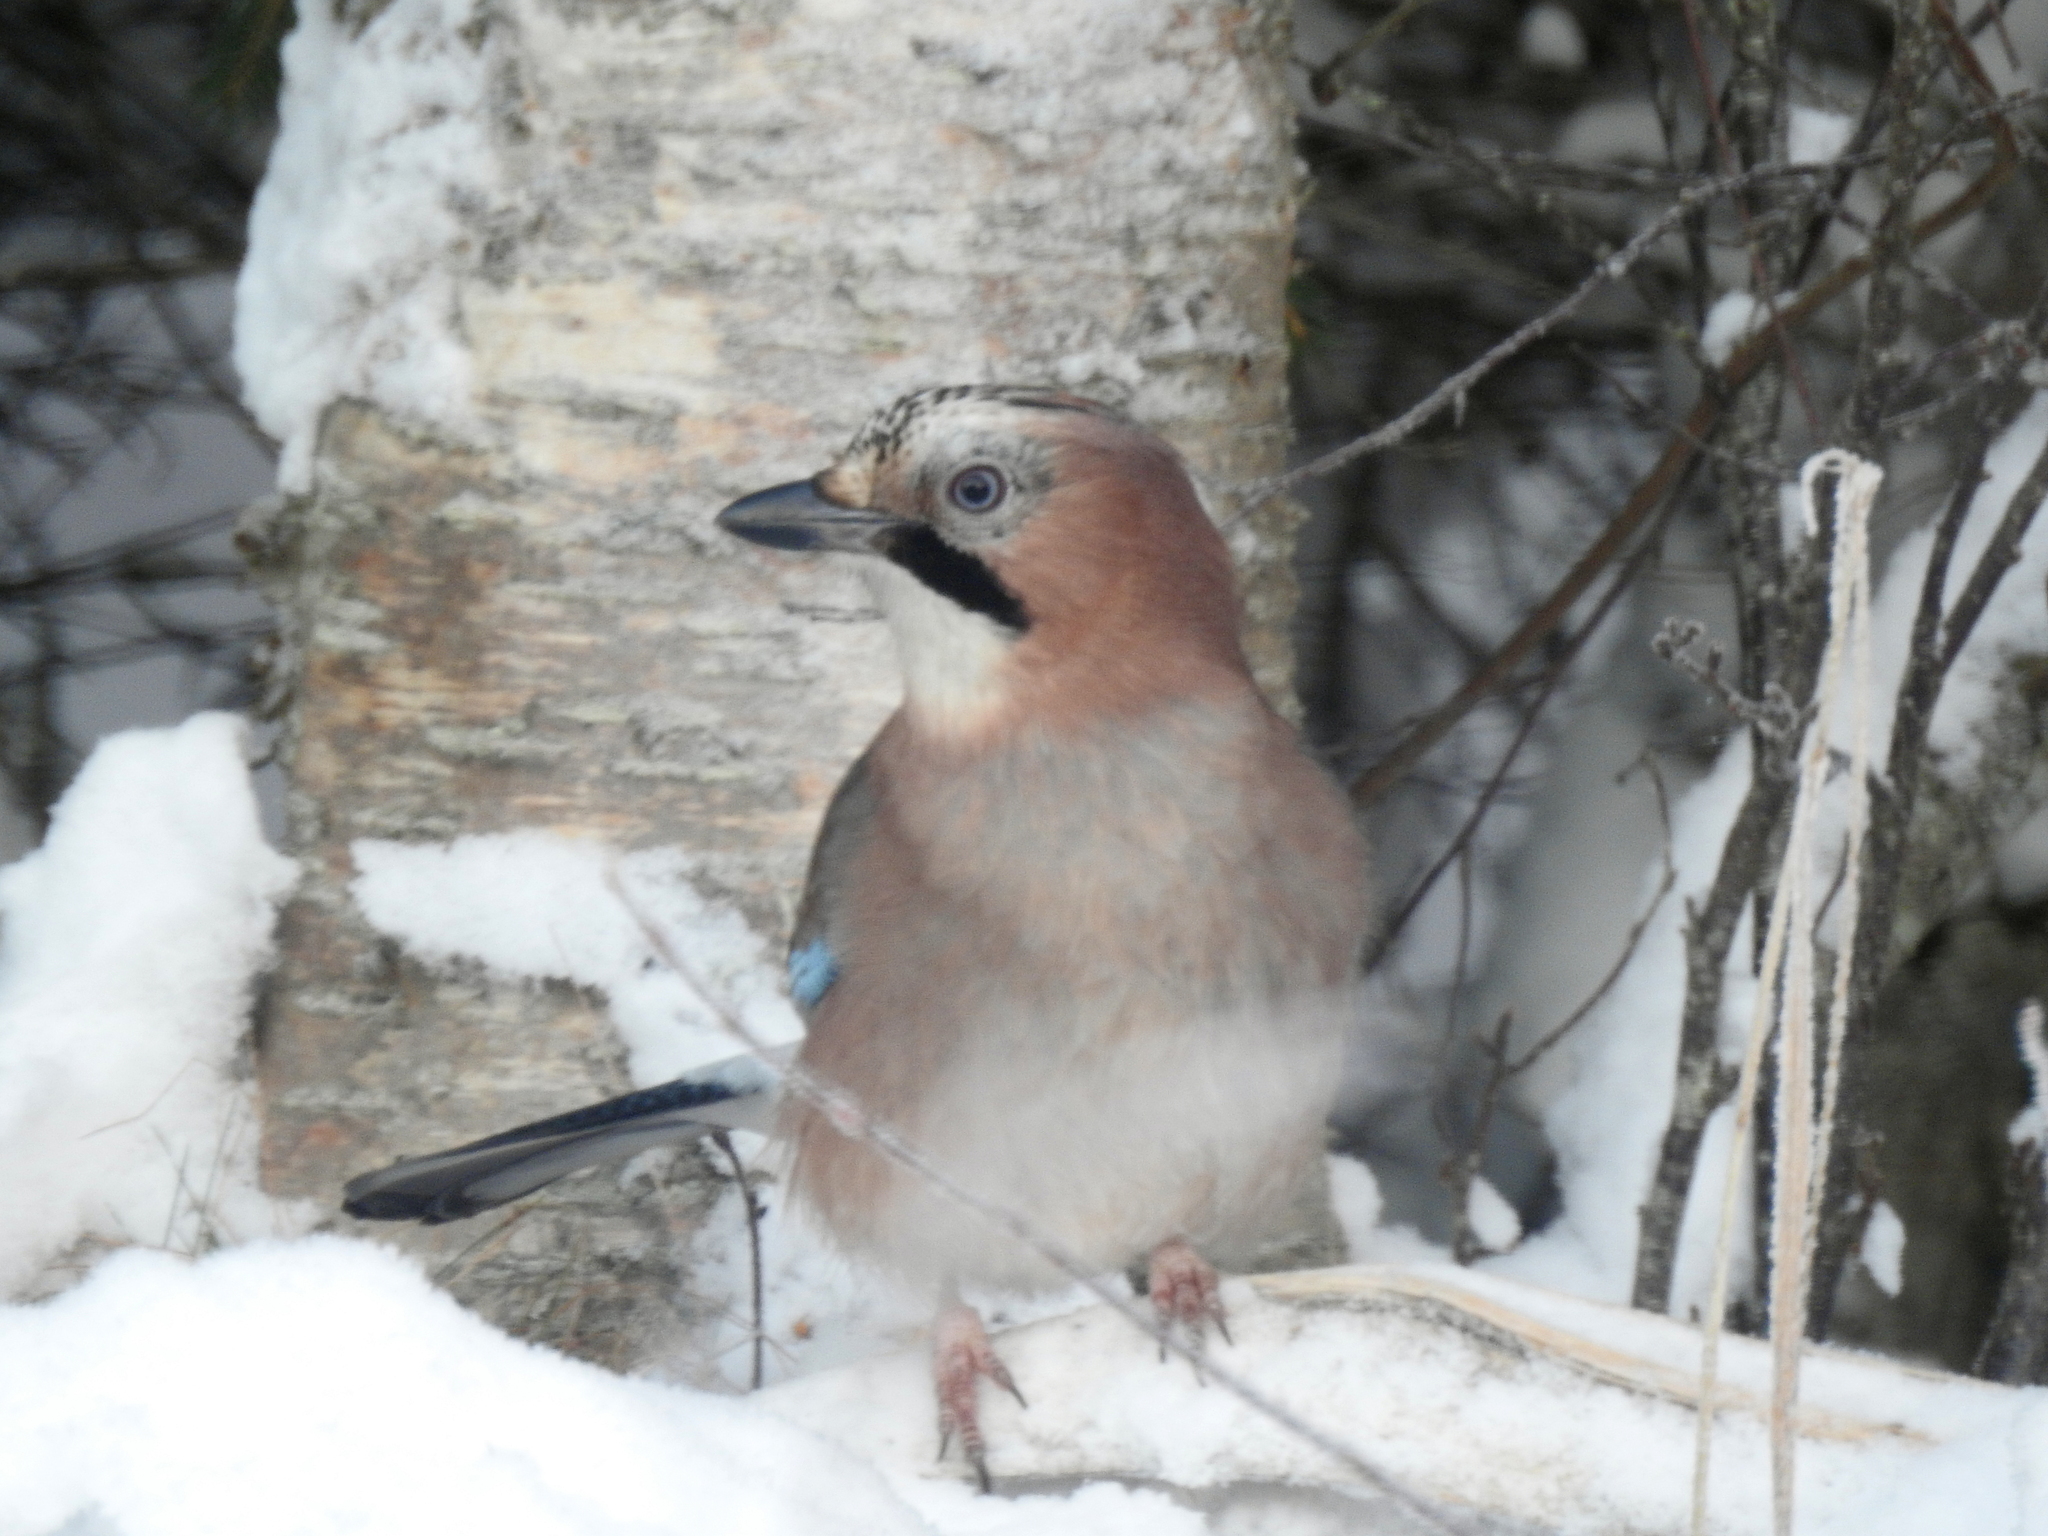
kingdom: Animalia
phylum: Chordata
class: Aves
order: Passeriformes
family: Corvidae
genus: Garrulus
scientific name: Garrulus glandarius
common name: Eurasian jay
